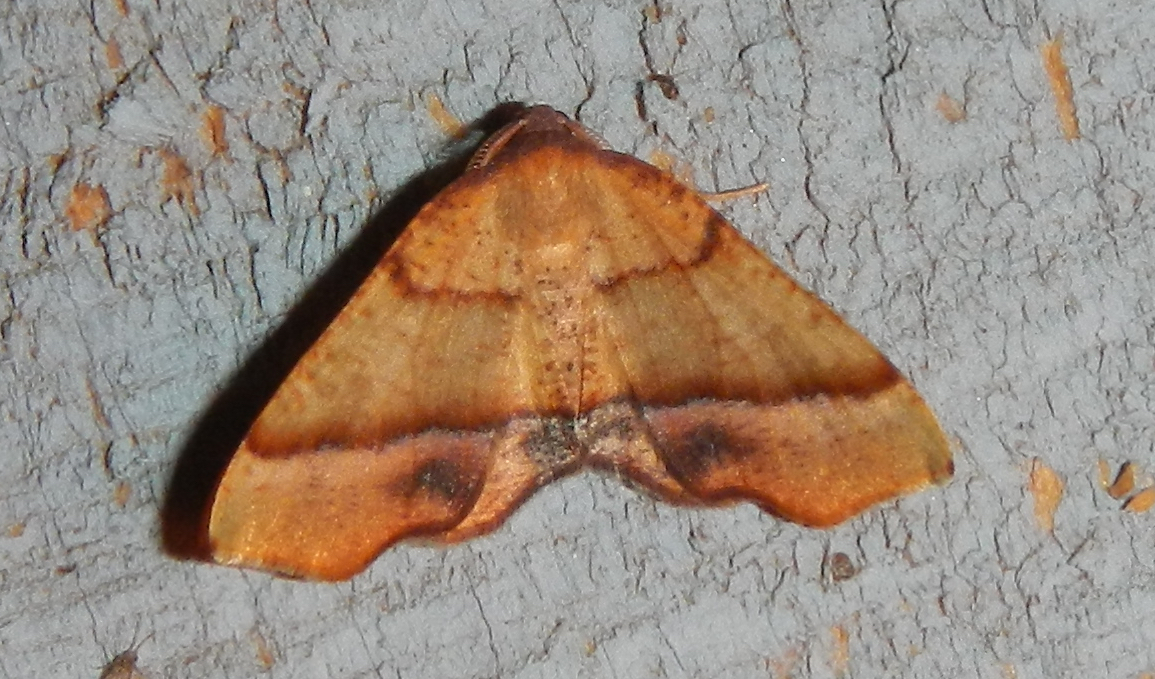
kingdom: Animalia
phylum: Arthropoda
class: Insecta
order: Lepidoptera
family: Geometridae
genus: Plagodis
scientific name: Plagodis phlogosaria
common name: Straight-lined plagodis
